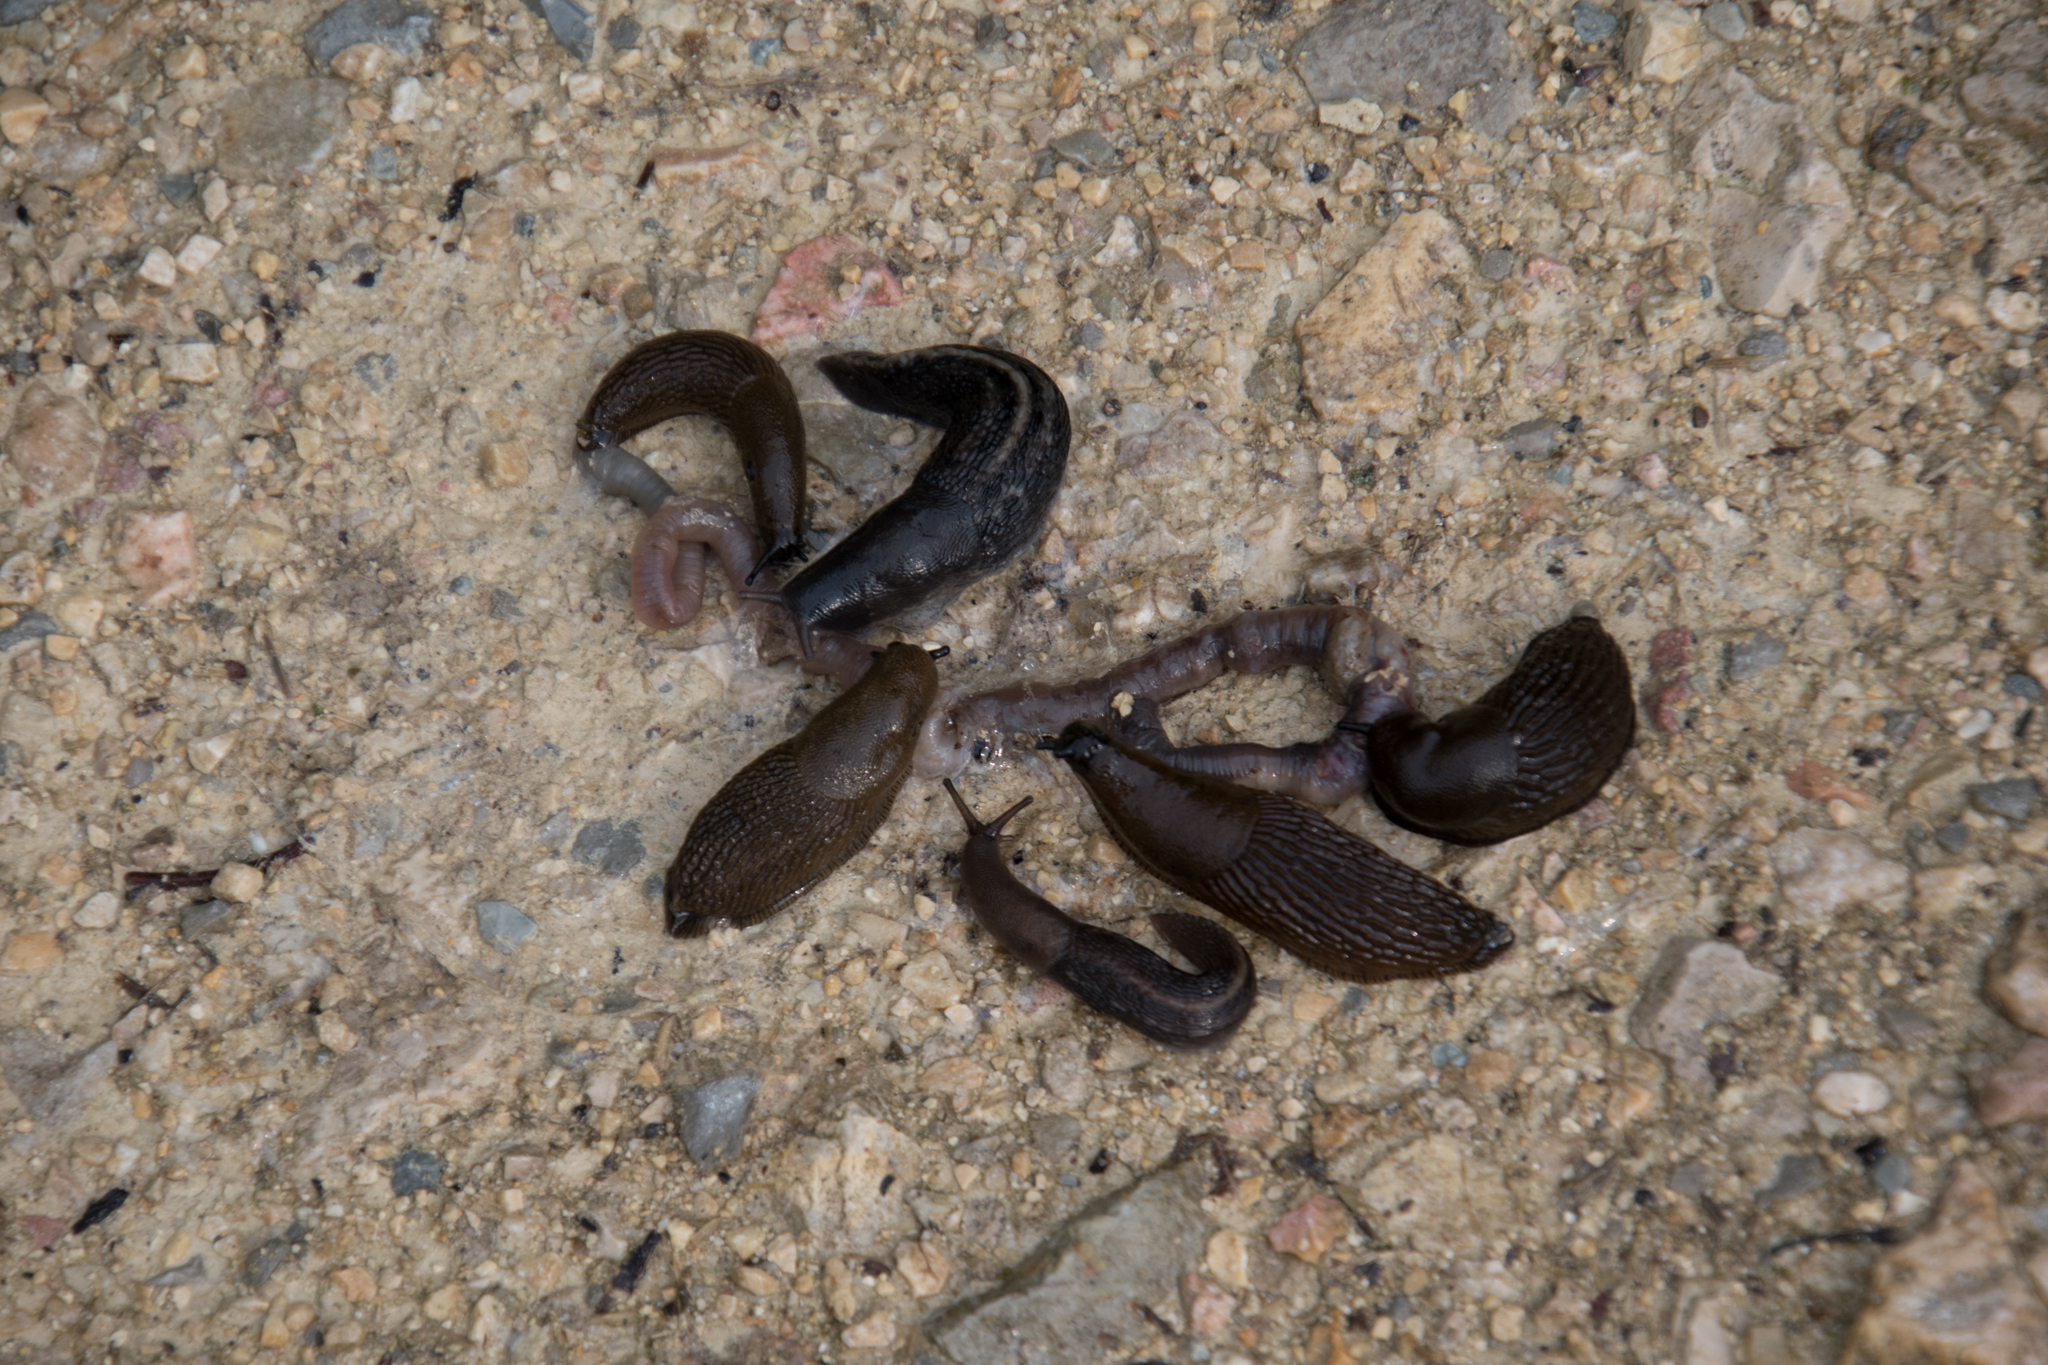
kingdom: Animalia
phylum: Mollusca
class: Gastropoda
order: Stylommatophora
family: Limacidae
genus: Limax
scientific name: Limax cinereoniger
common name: Ash-black slug
